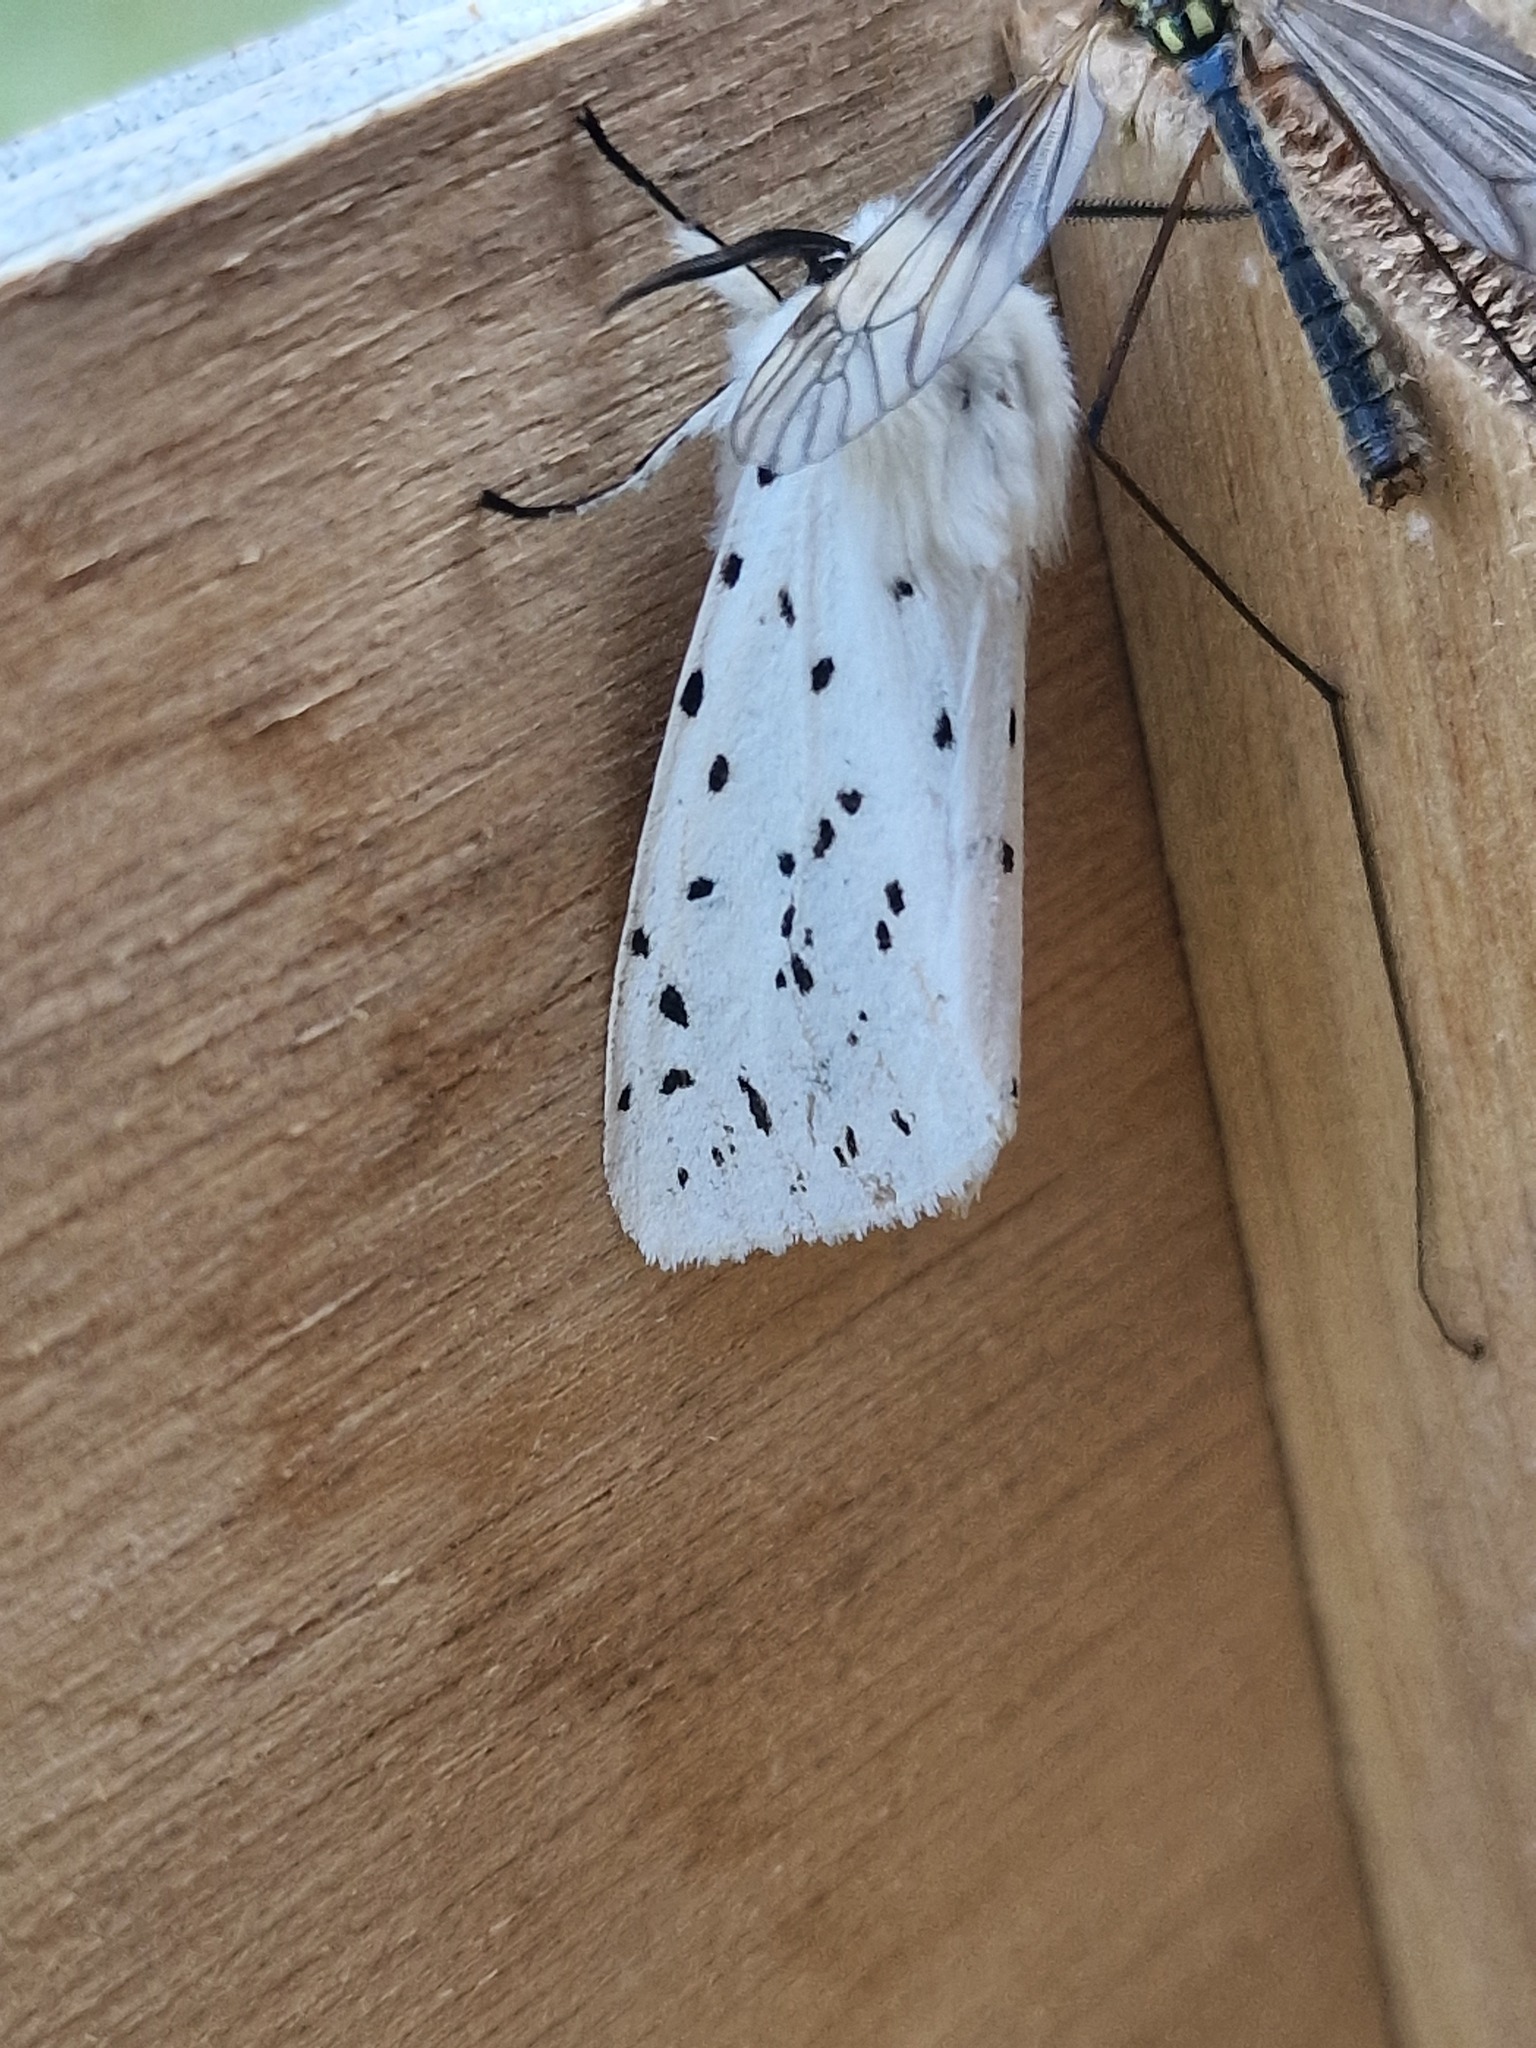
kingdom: Animalia
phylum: Arthropoda
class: Insecta
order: Lepidoptera
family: Erebidae
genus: Spilosoma
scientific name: Spilosoma lubricipeda
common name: White ermine
